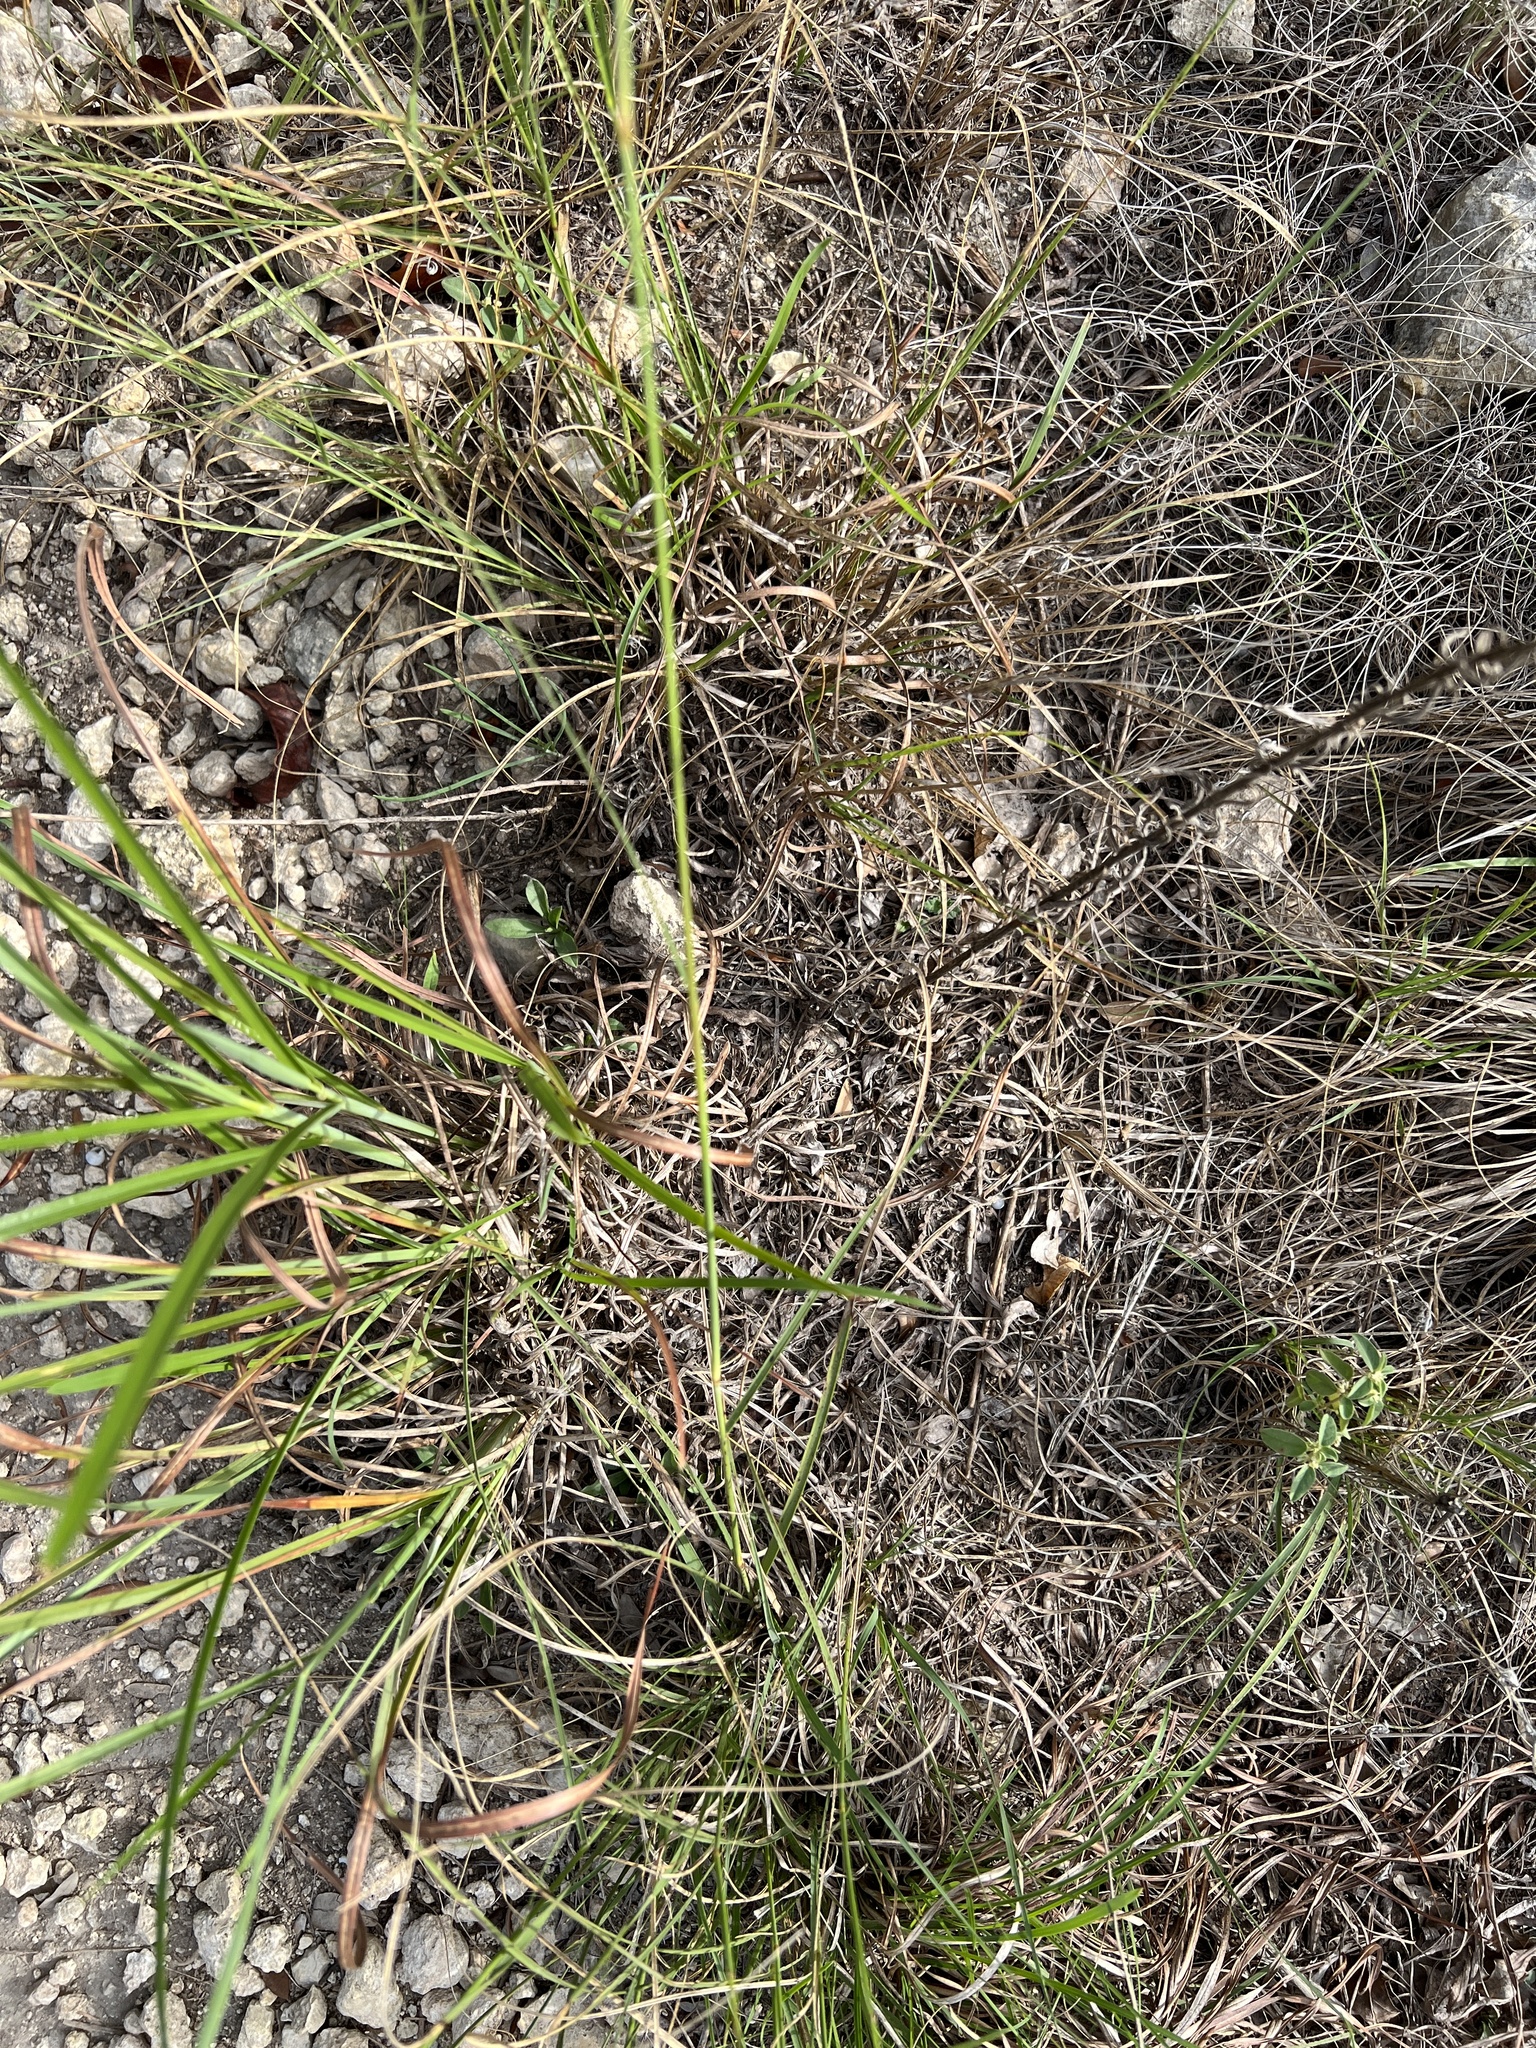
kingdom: Plantae
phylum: Tracheophyta
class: Liliopsida
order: Poales
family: Poaceae
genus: Bouteloua
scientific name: Bouteloua pectinata
